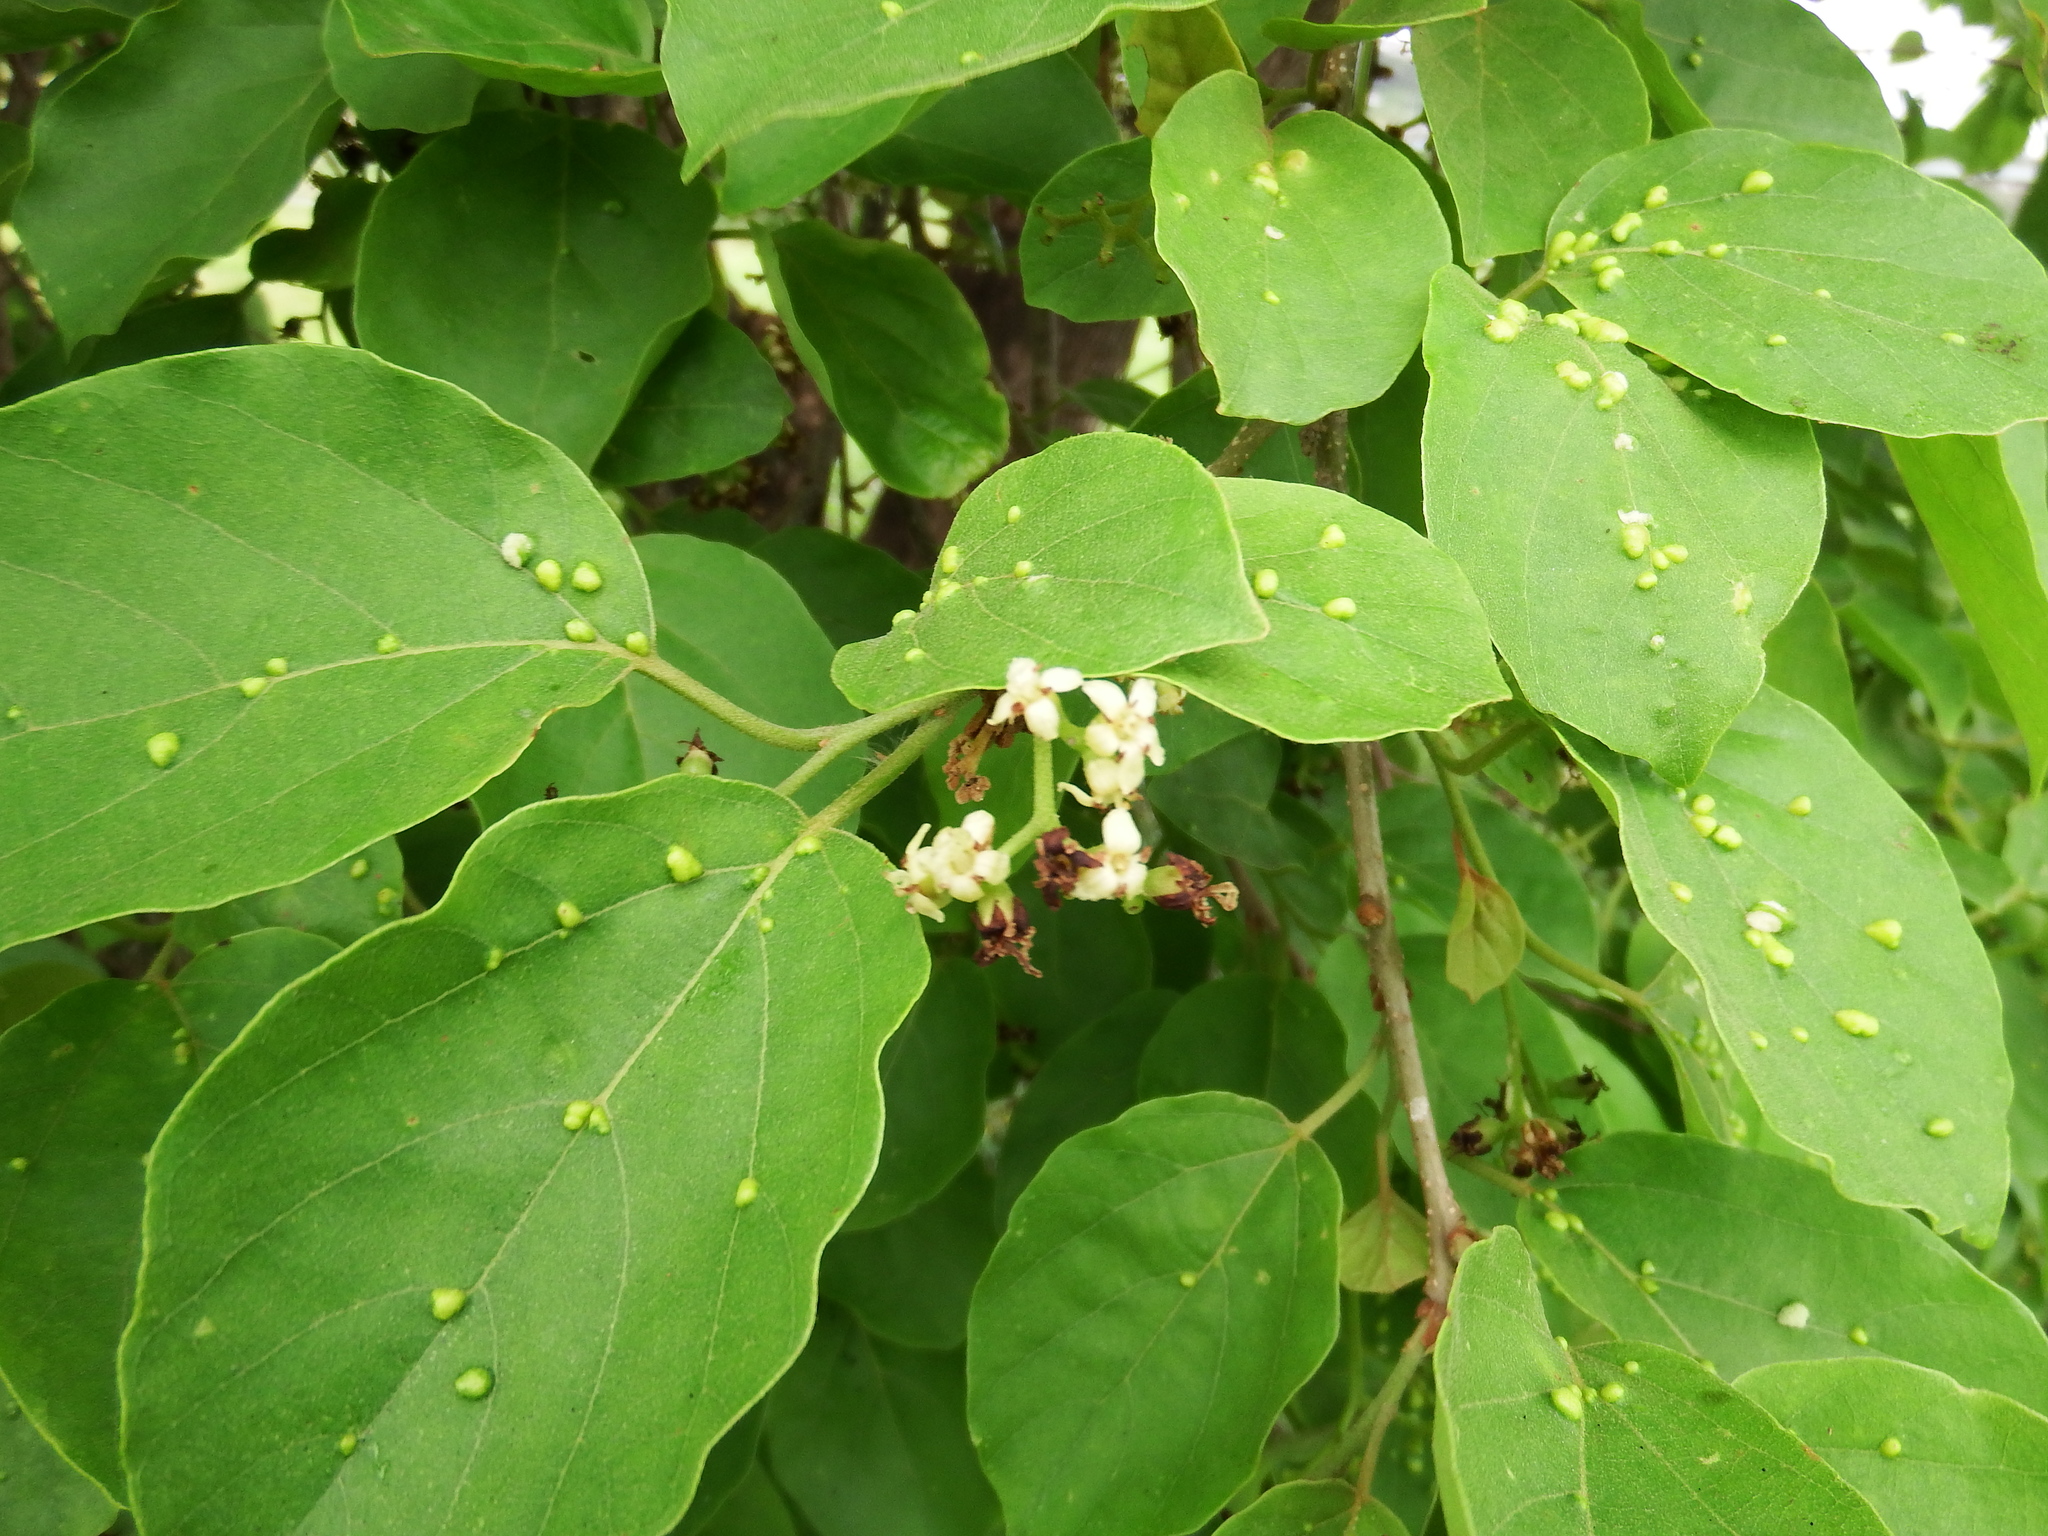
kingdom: Plantae
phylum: Tracheophyta
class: Magnoliopsida
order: Boraginales
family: Cordiaceae
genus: Cordia
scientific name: Cordia dichotoma
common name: Fragrant manjack
